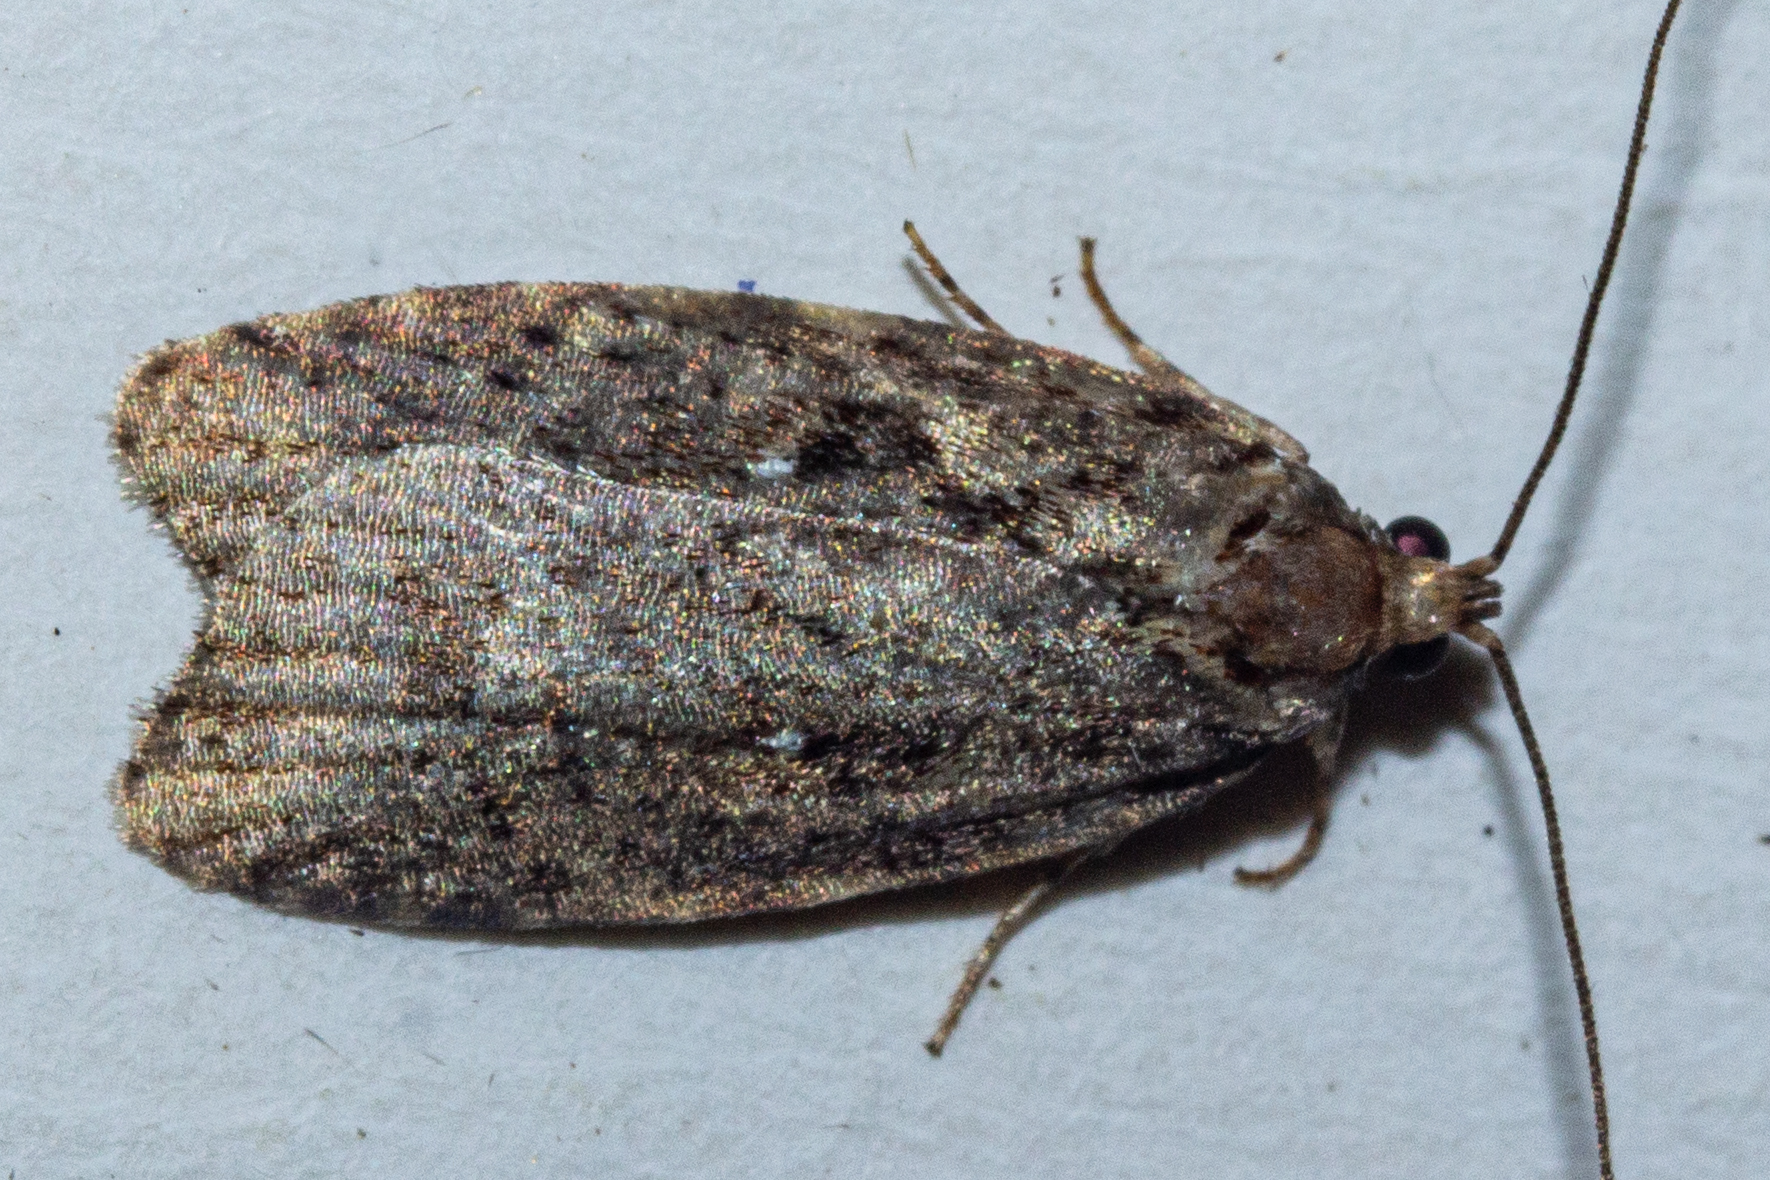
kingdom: Animalia
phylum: Arthropoda
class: Insecta
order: Lepidoptera
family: Oecophoridae
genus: Proteodes
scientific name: Proteodes profunda
